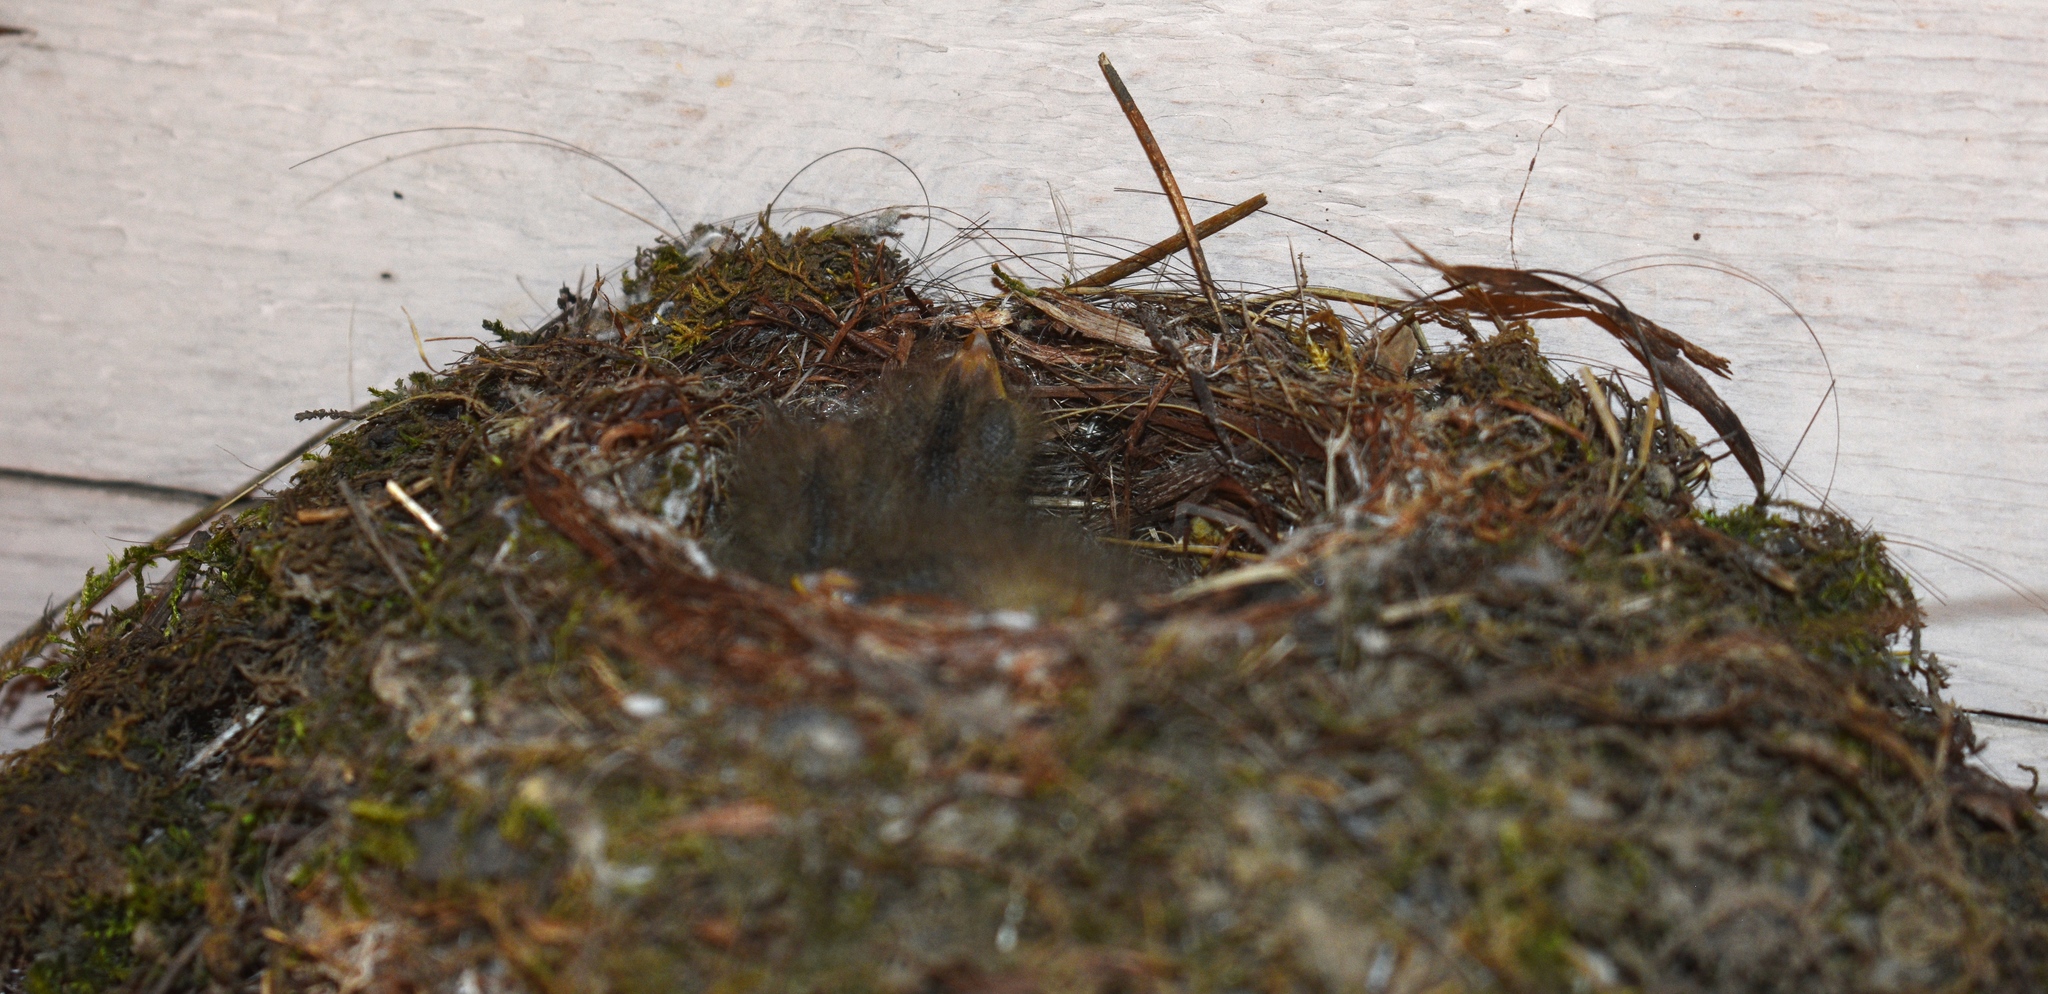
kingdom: Animalia
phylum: Chordata
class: Aves
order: Passeriformes
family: Tyrannidae
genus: Empidonax
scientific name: Empidonax difficilis
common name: Pacific-slope flycatcher
